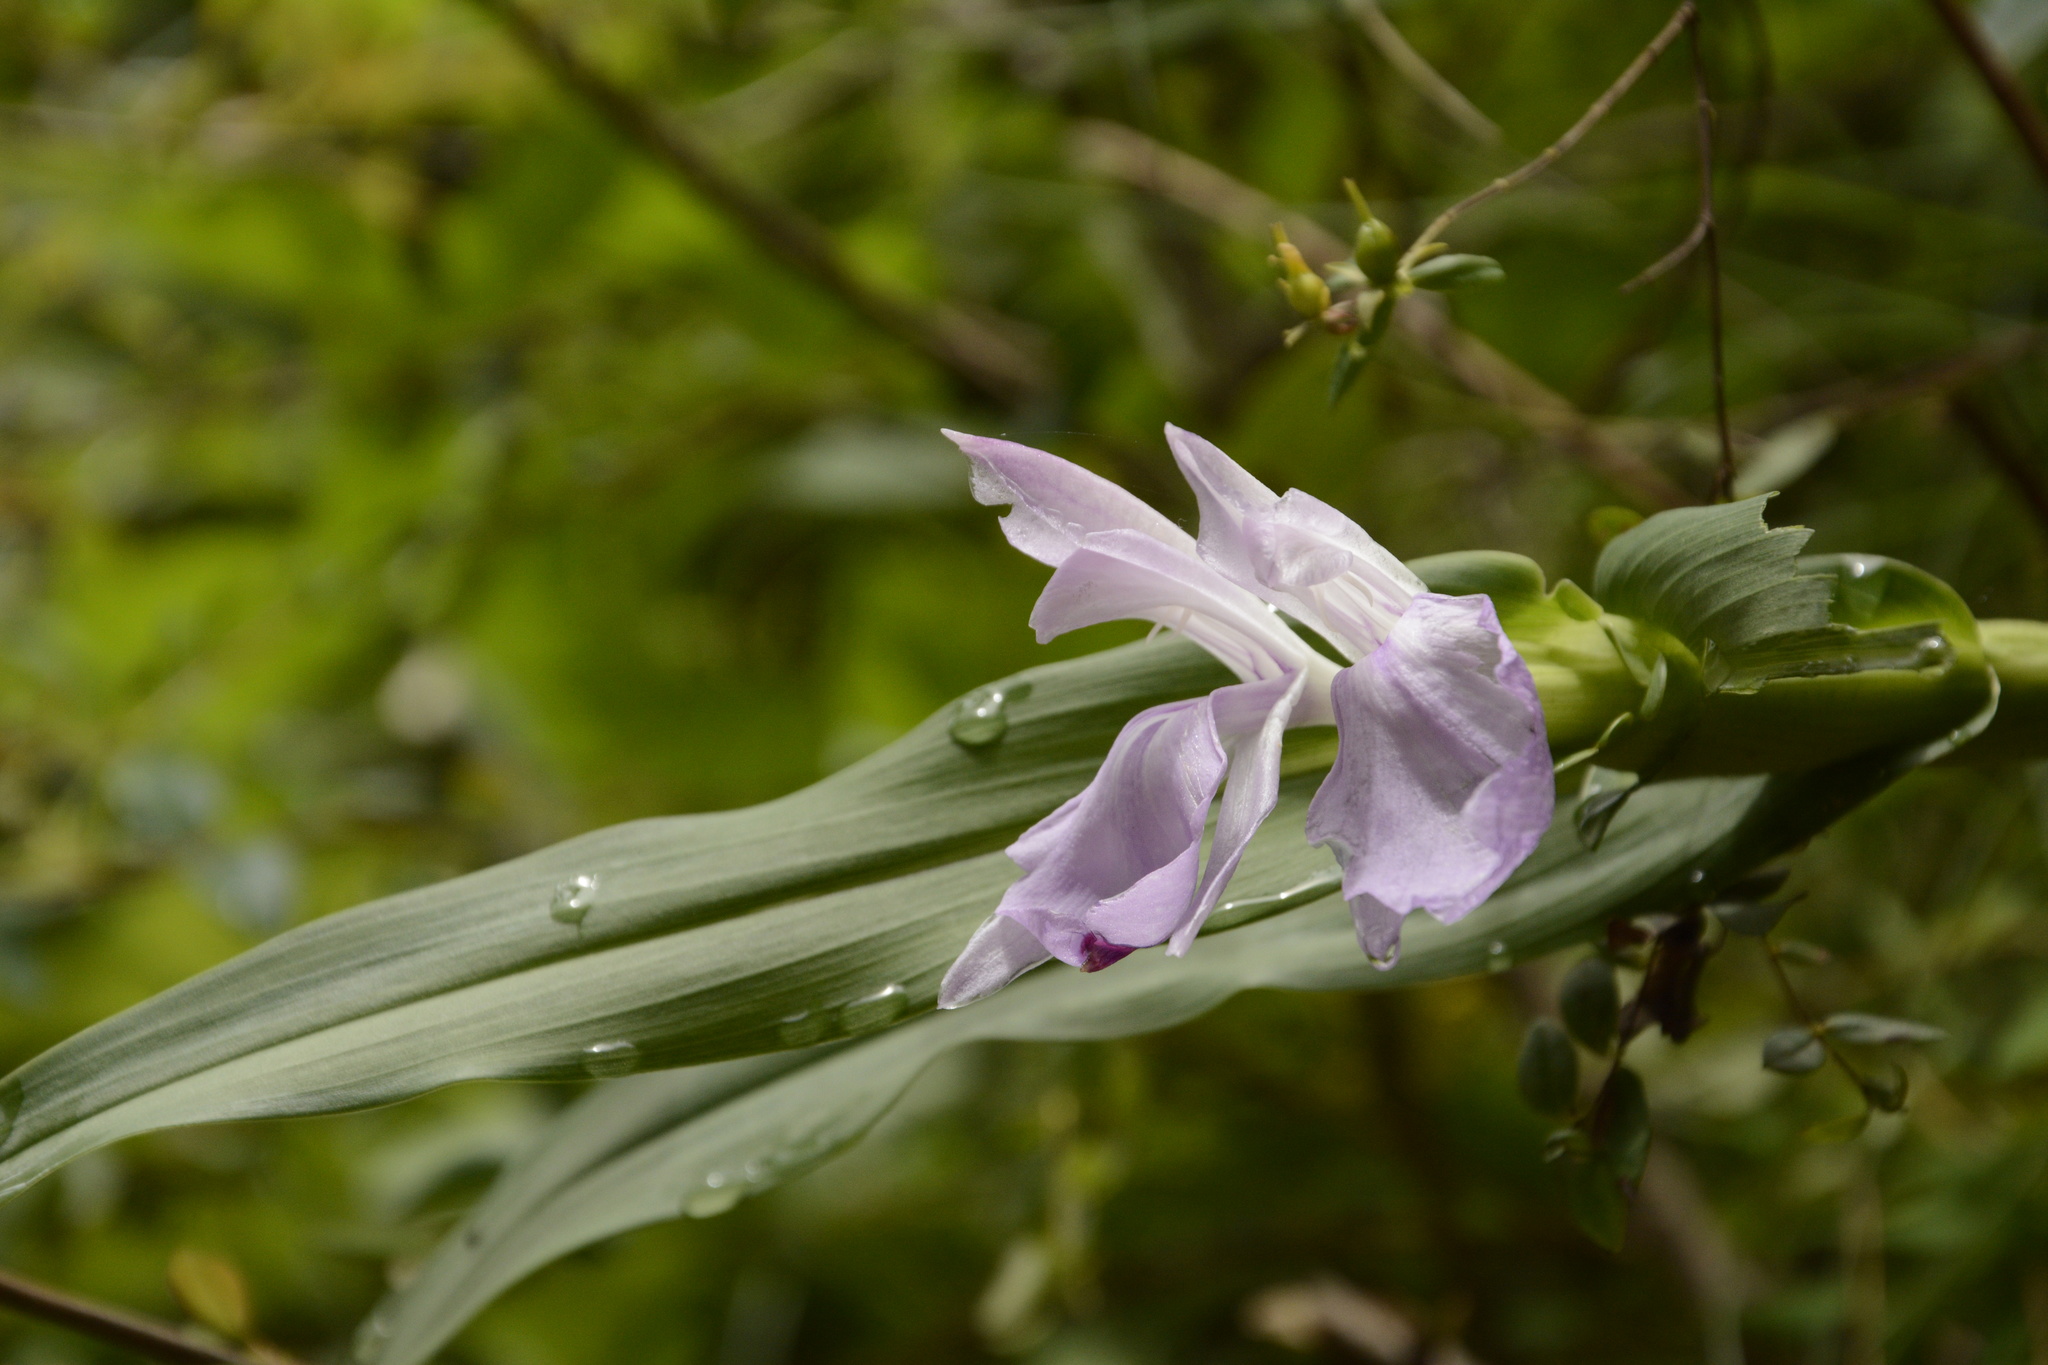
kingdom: Plantae
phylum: Tracheophyta
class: Liliopsida
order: Zingiberales
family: Zingiberaceae
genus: Roscoea
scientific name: Roscoea purpurea
